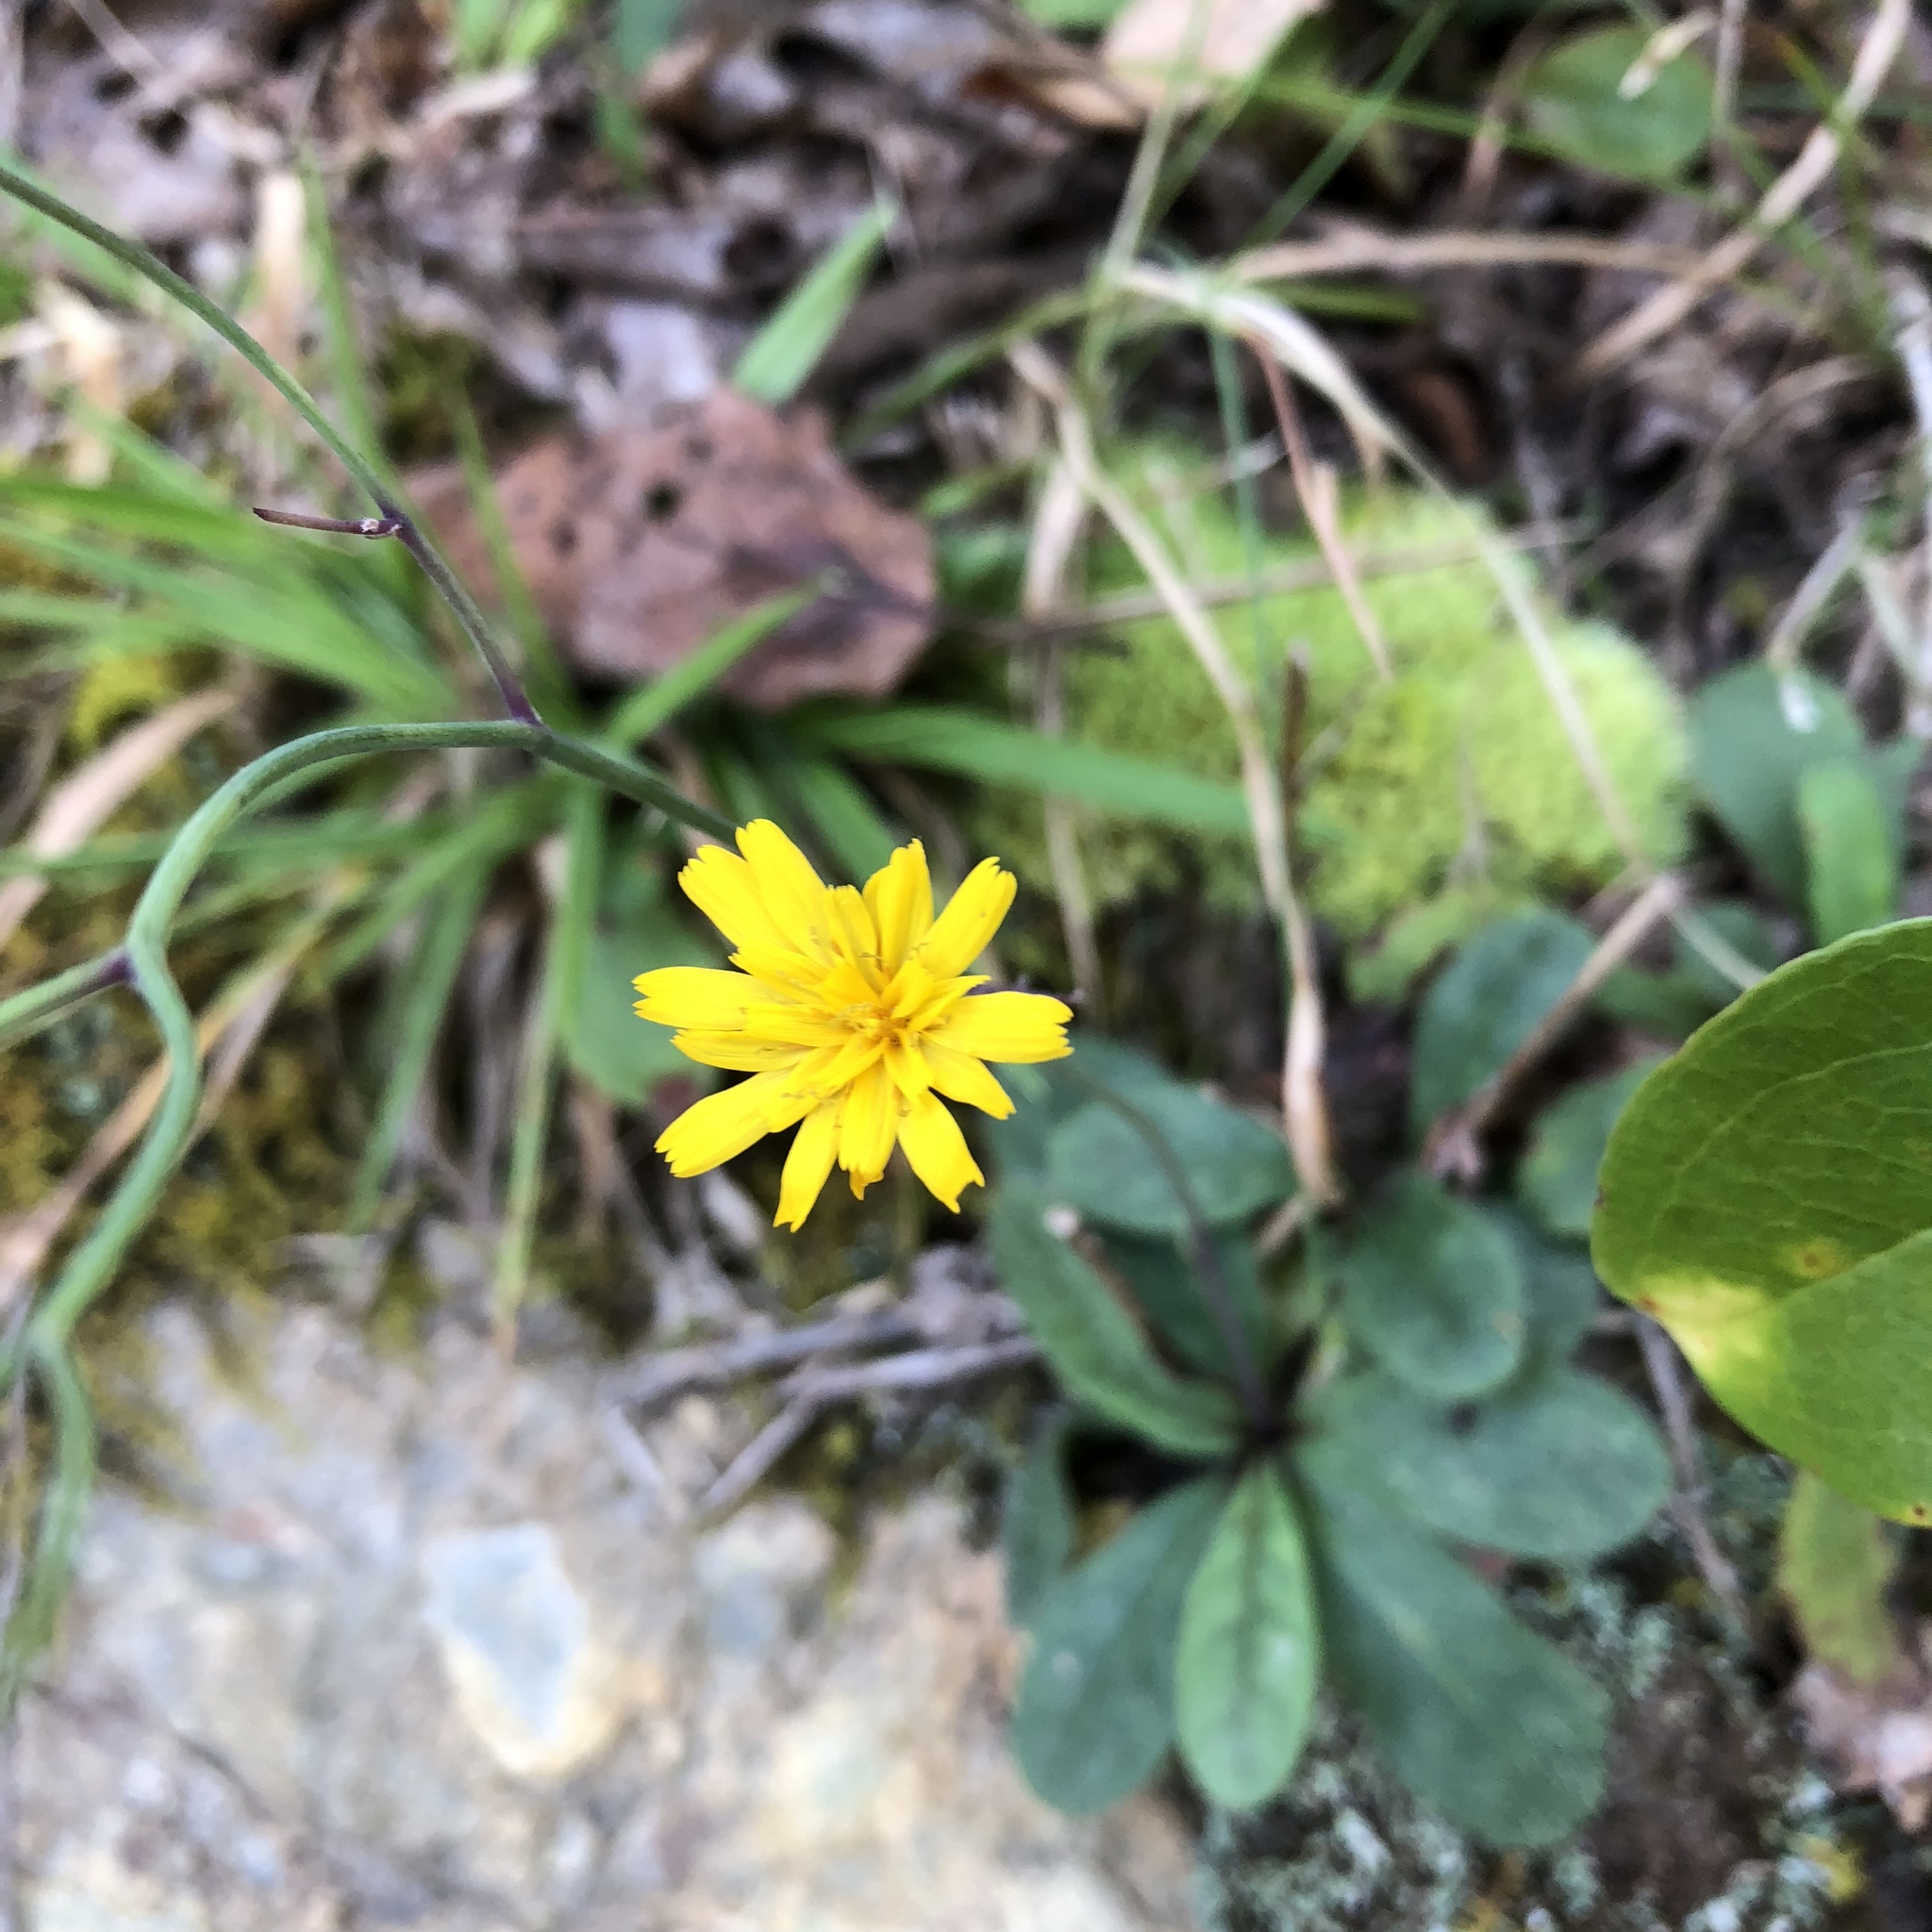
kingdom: Plantae
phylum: Tracheophyta
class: Magnoliopsida
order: Asterales
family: Asteraceae
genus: Hieracium
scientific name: Hieracium venosum
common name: Rattlesnake hawkweed
